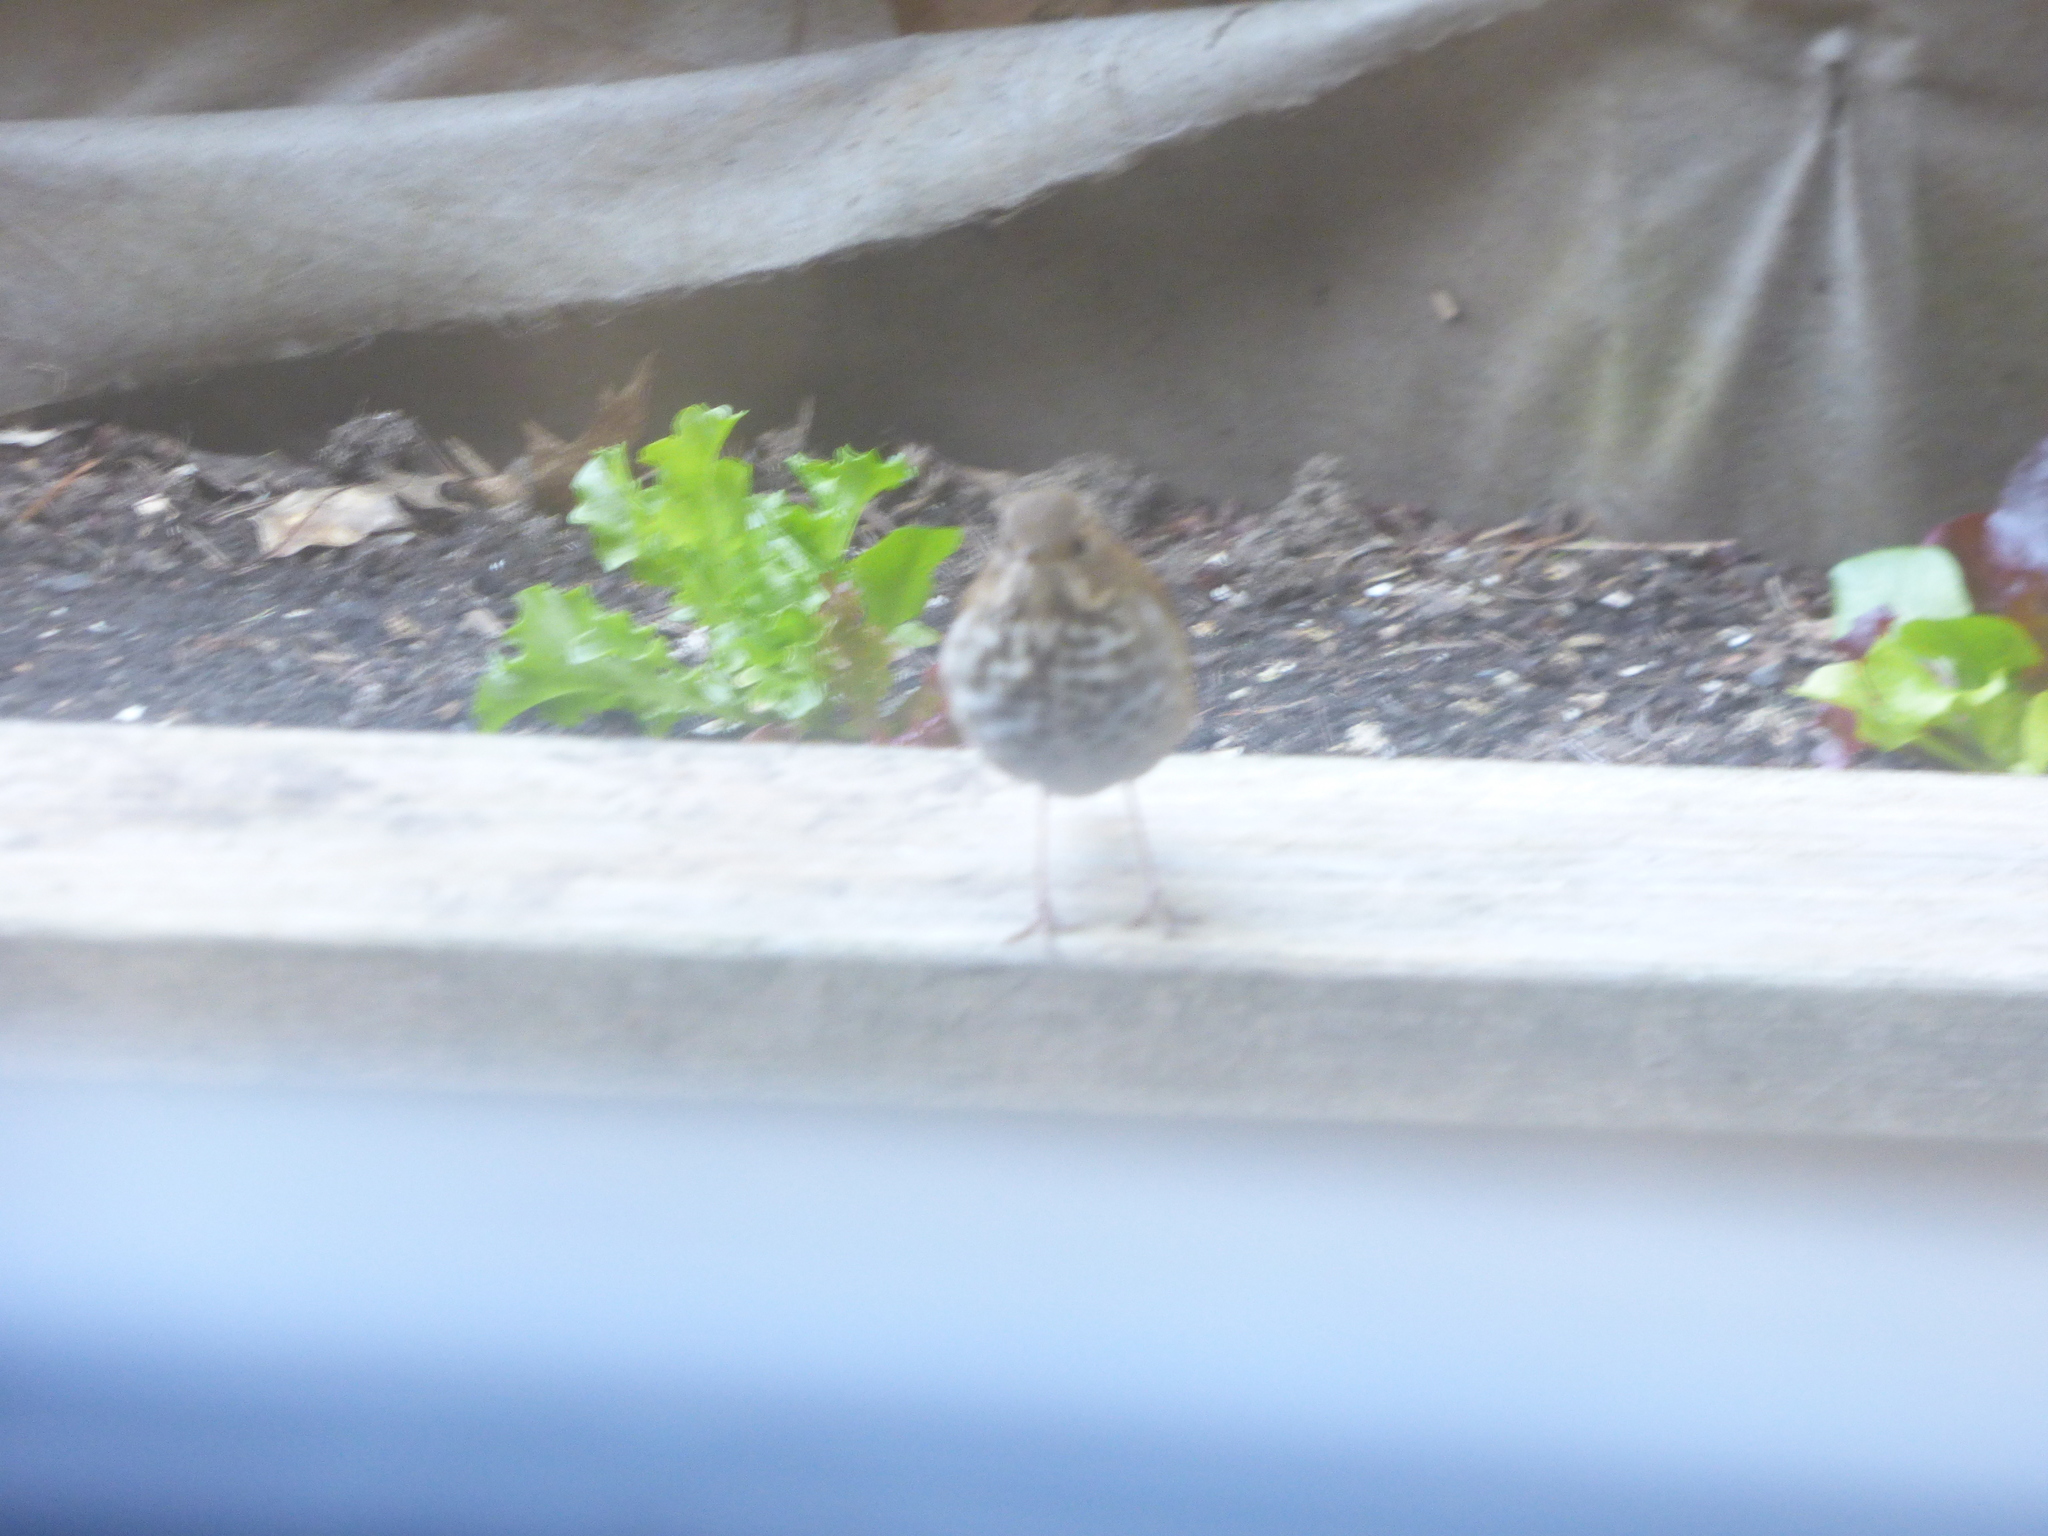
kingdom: Animalia
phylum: Chordata
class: Aves
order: Passeriformes
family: Turdidae
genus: Catharus
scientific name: Catharus guttatus
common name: Hermit thrush
